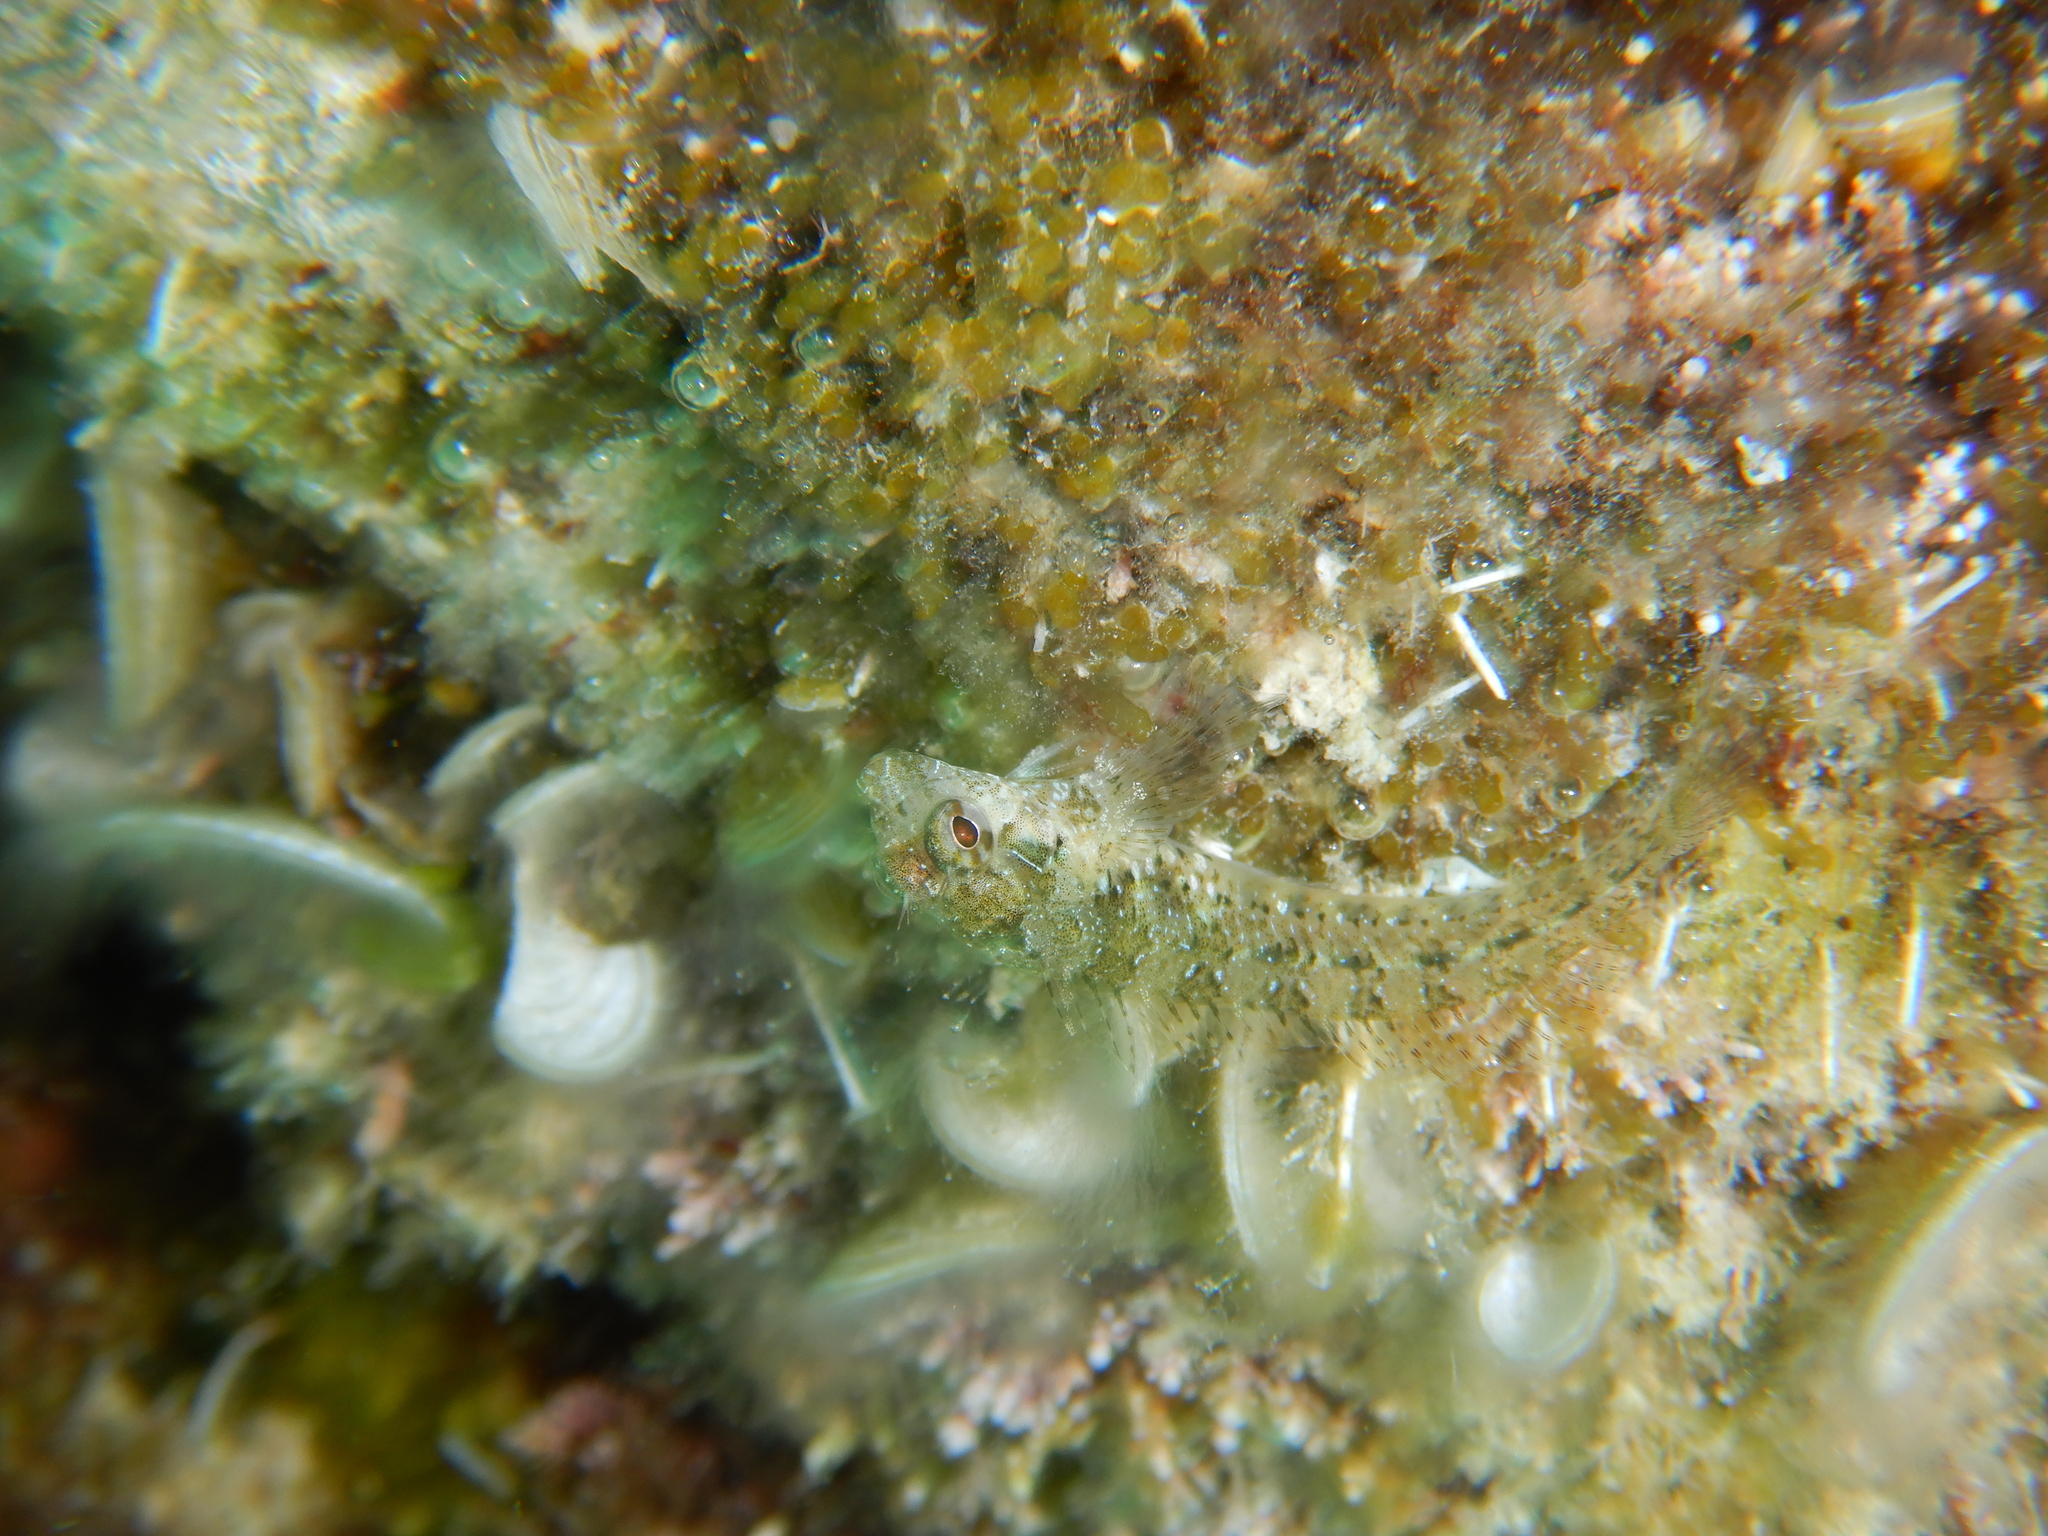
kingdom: Animalia
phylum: Chordata
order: Perciformes
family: Blenniidae
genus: Parablennius
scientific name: Parablennius incognitus
